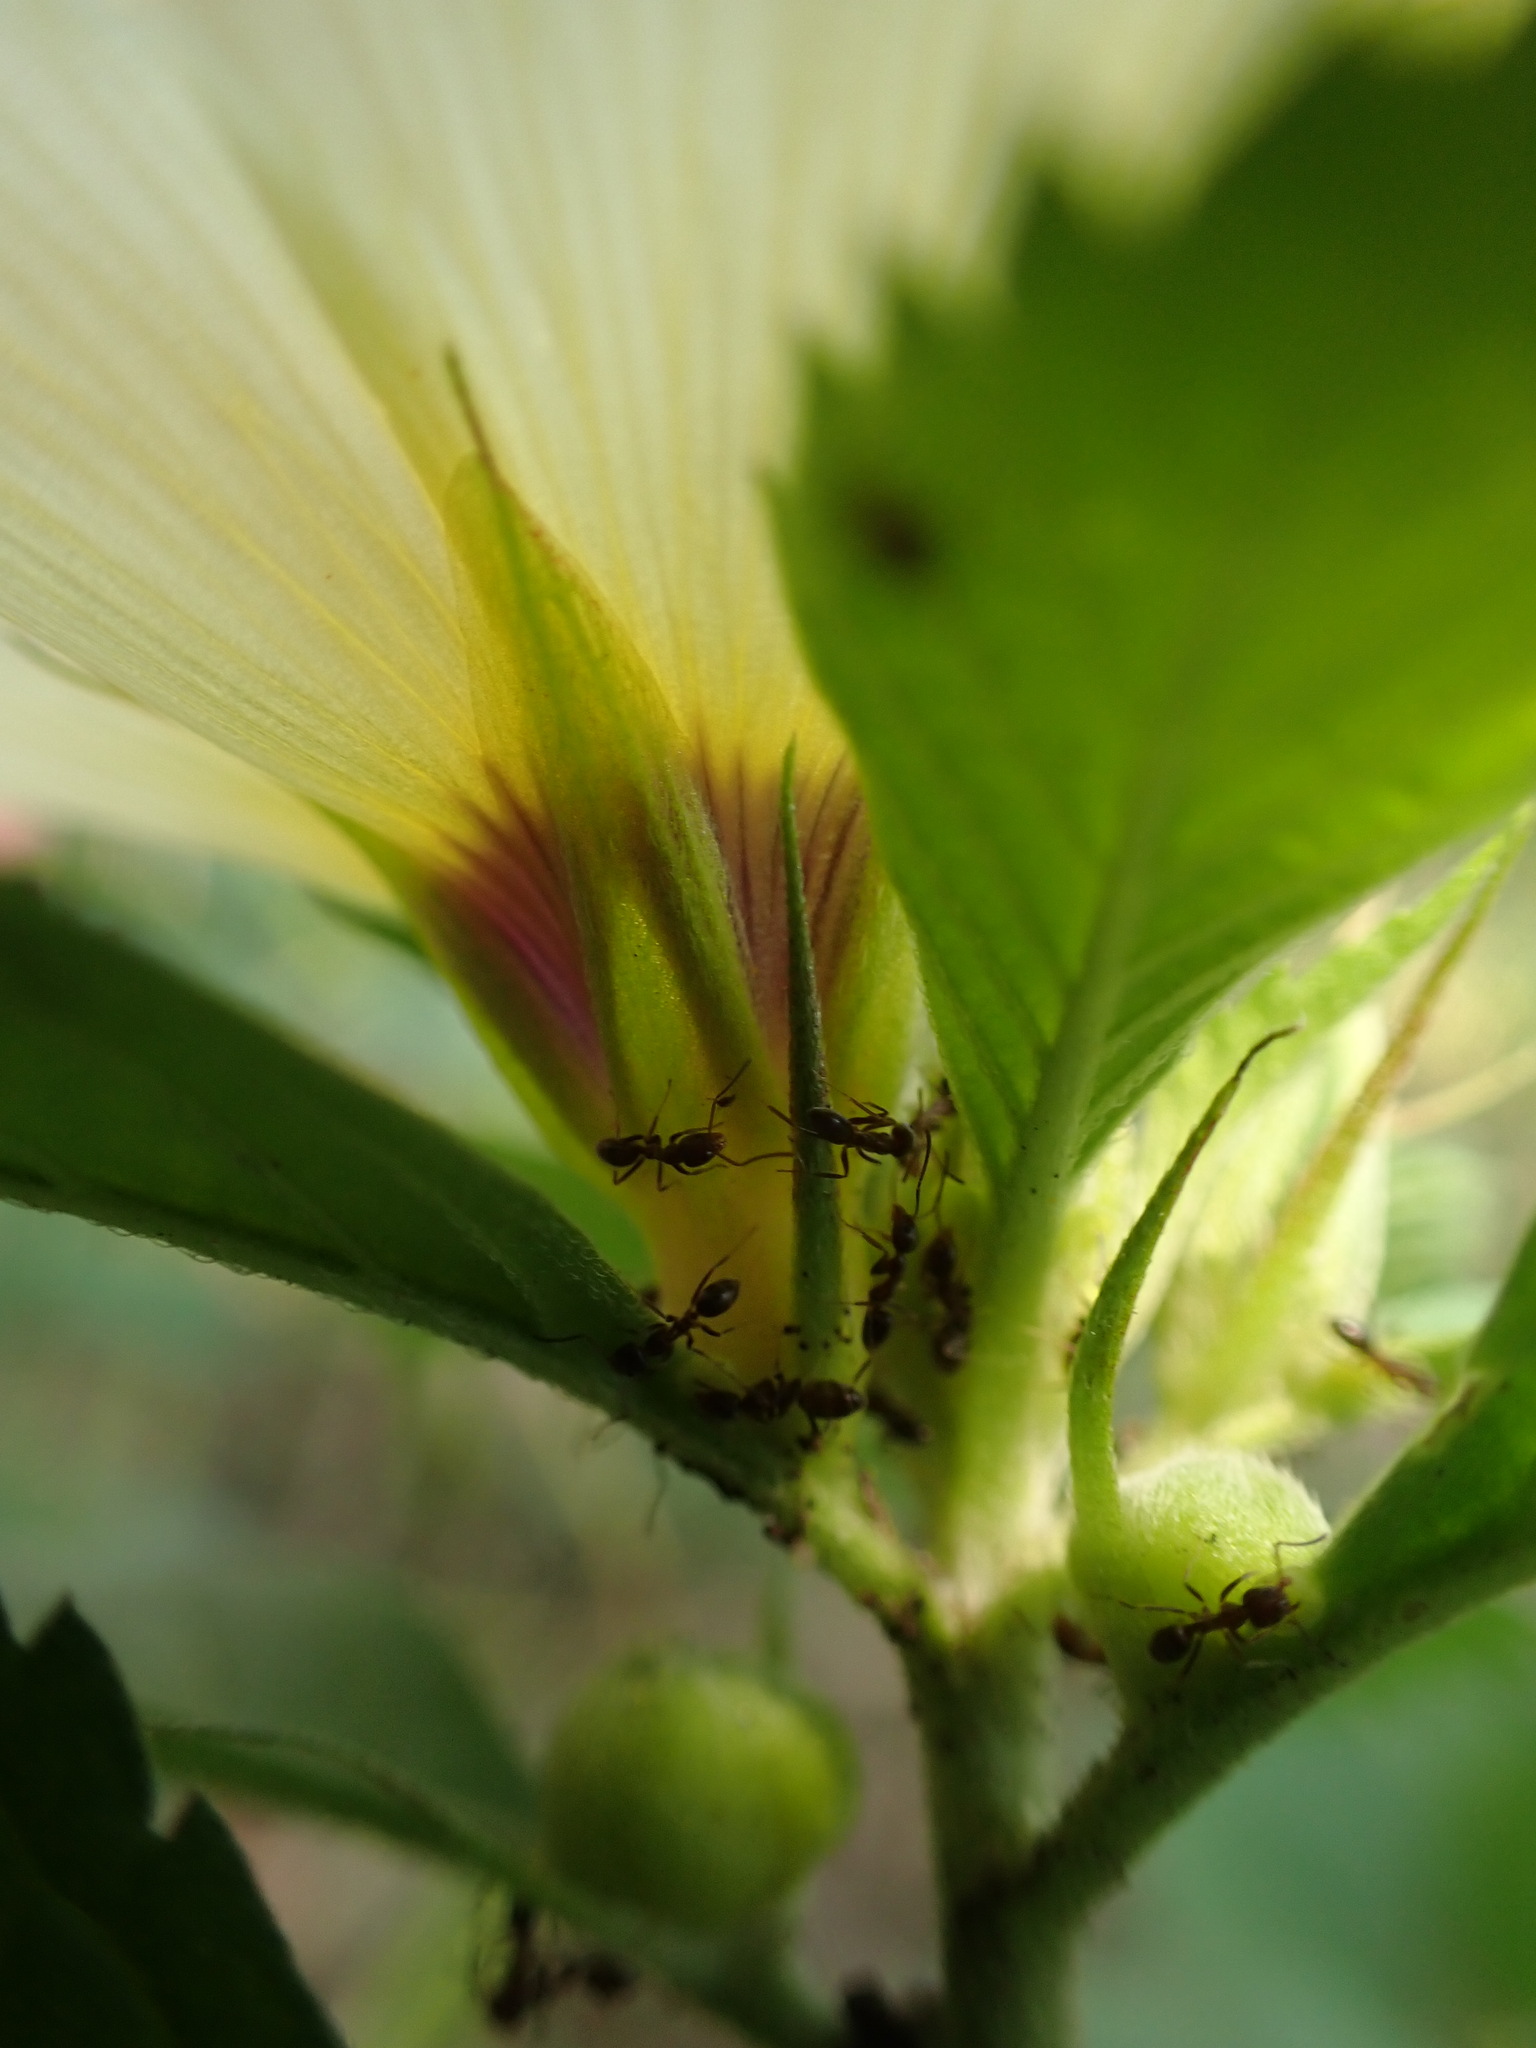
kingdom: Plantae
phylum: Tracheophyta
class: Magnoliopsida
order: Malpighiales
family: Turneraceae
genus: Turnera
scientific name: Turnera subulata
